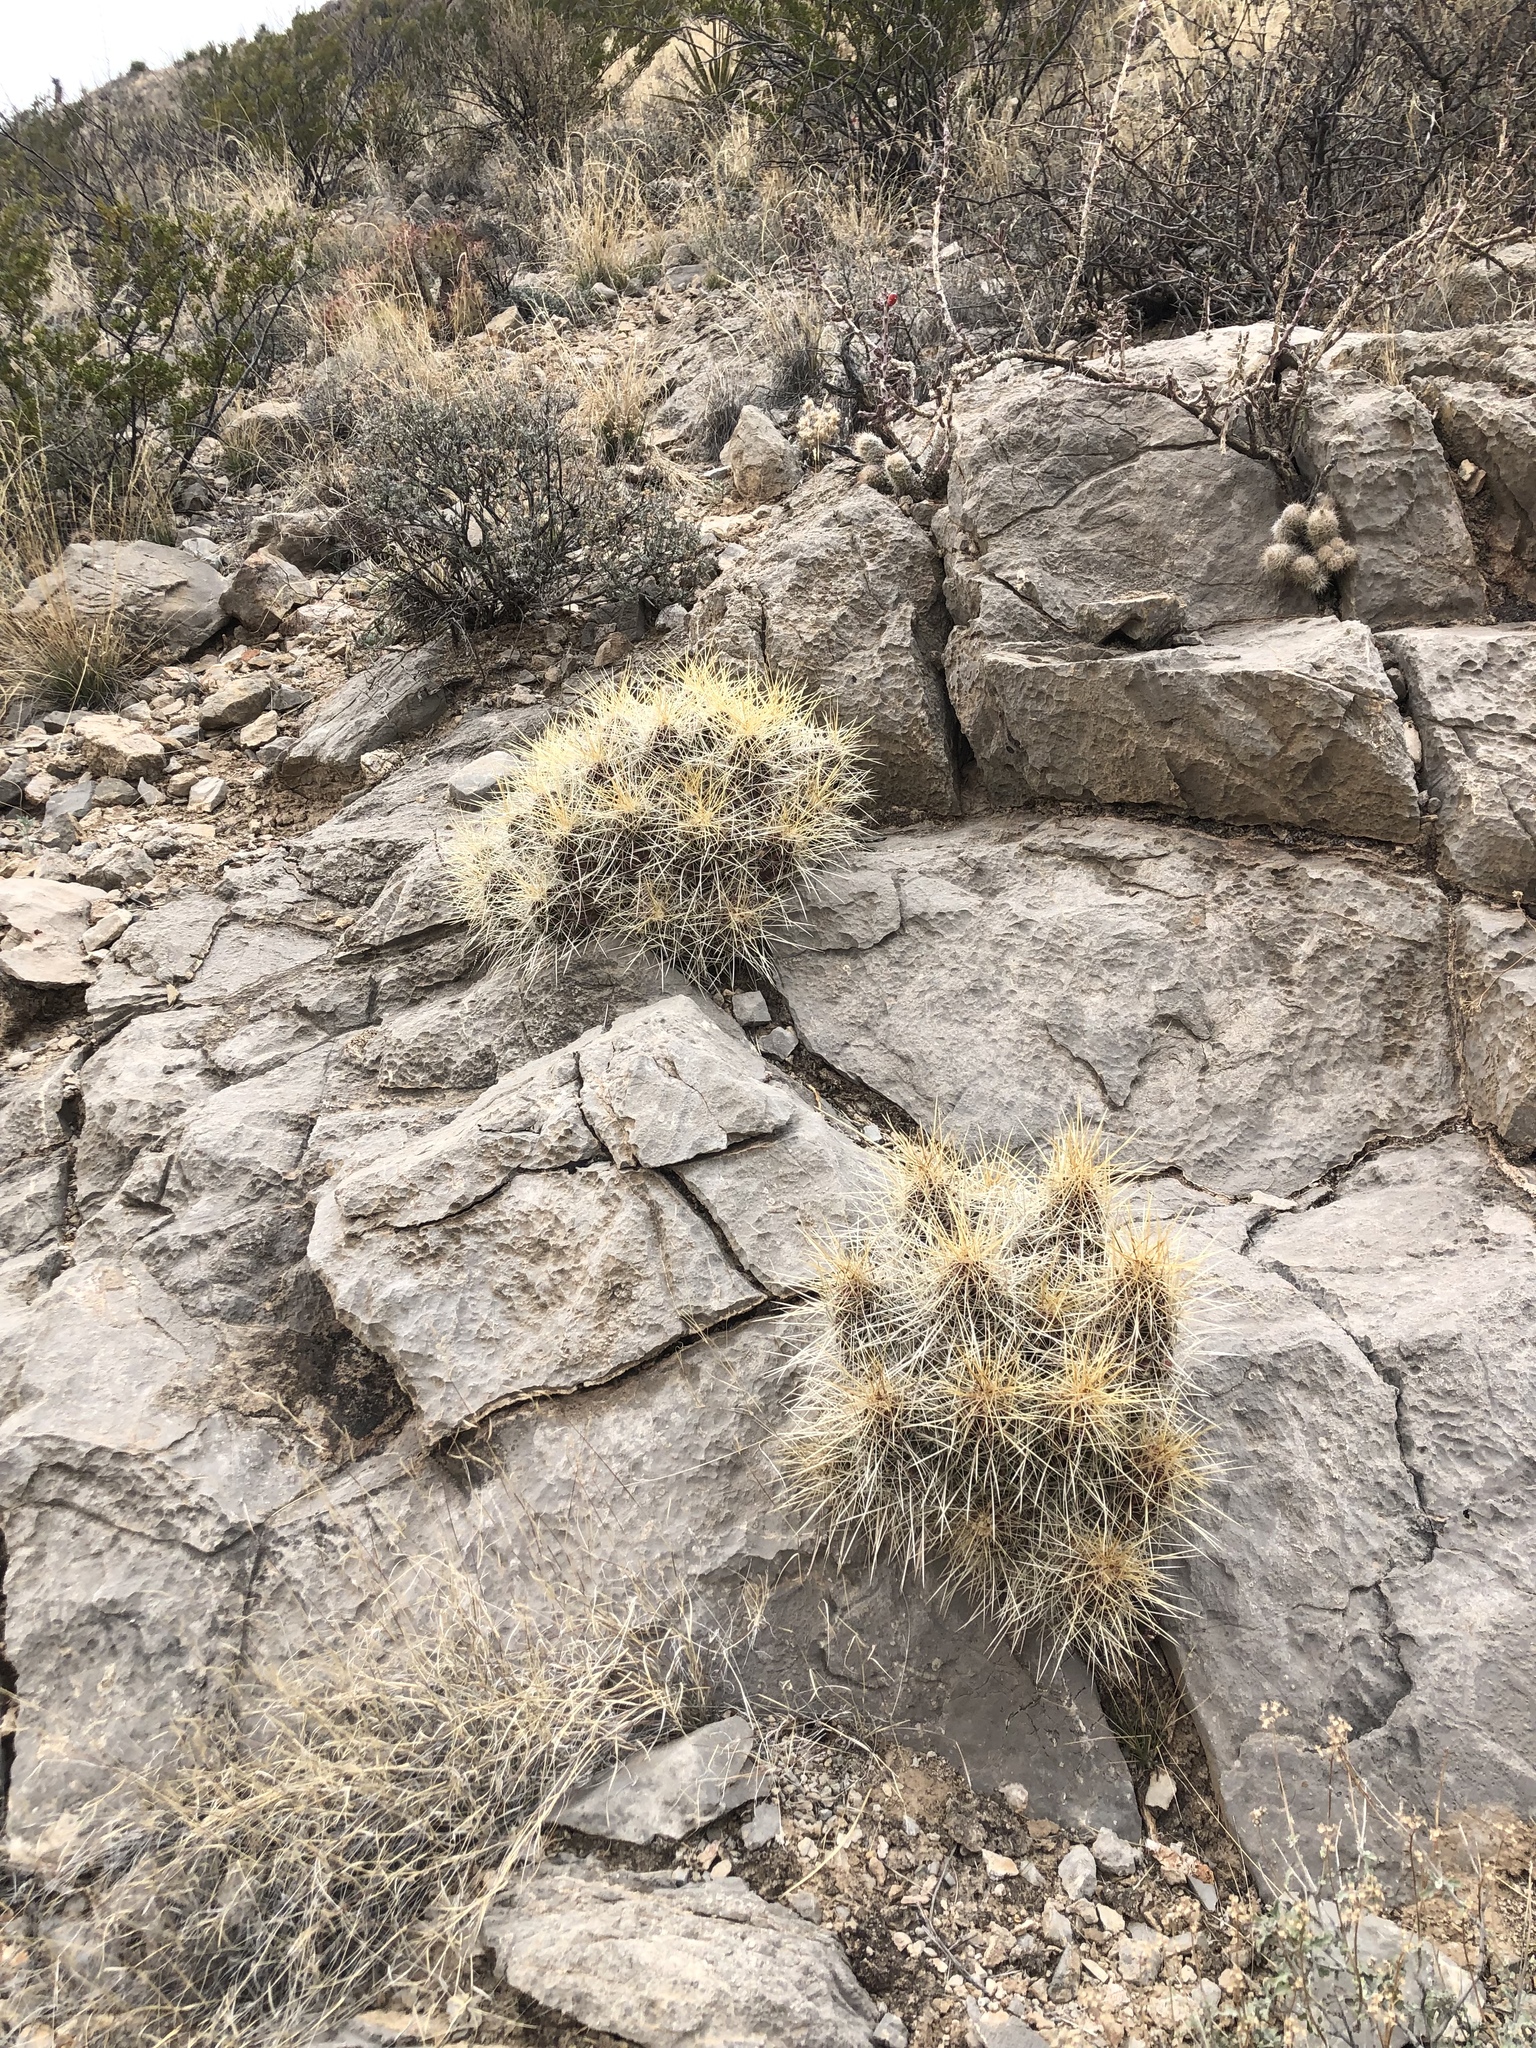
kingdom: Plantae
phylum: Tracheophyta
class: Magnoliopsida
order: Caryophyllales
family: Cactaceae
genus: Echinocereus
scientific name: Echinocereus stramineus
